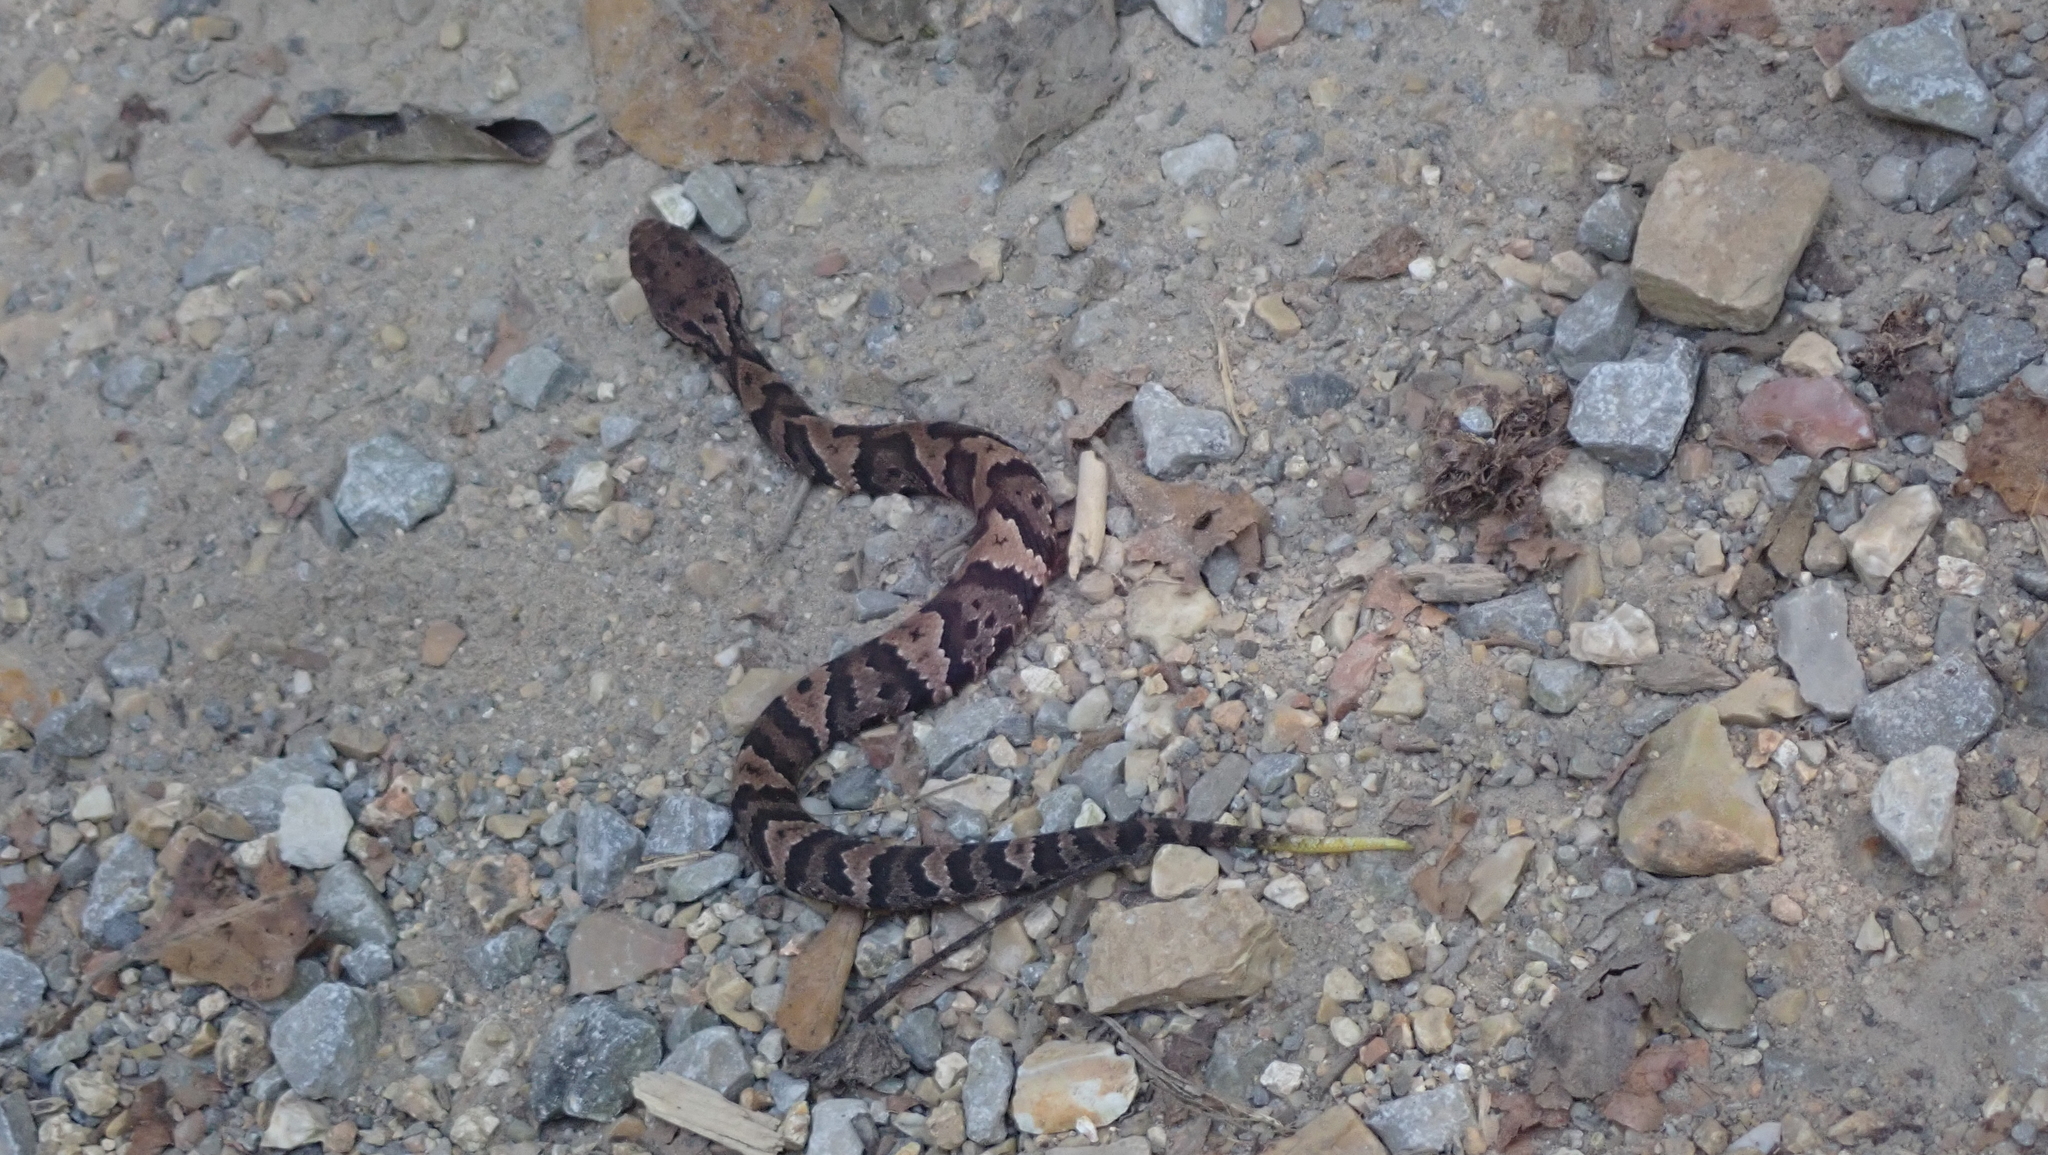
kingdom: Animalia
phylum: Chordata
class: Squamata
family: Viperidae
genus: Agkistrodon
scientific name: Agkistrodon piscivorus
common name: Cottonmouth
